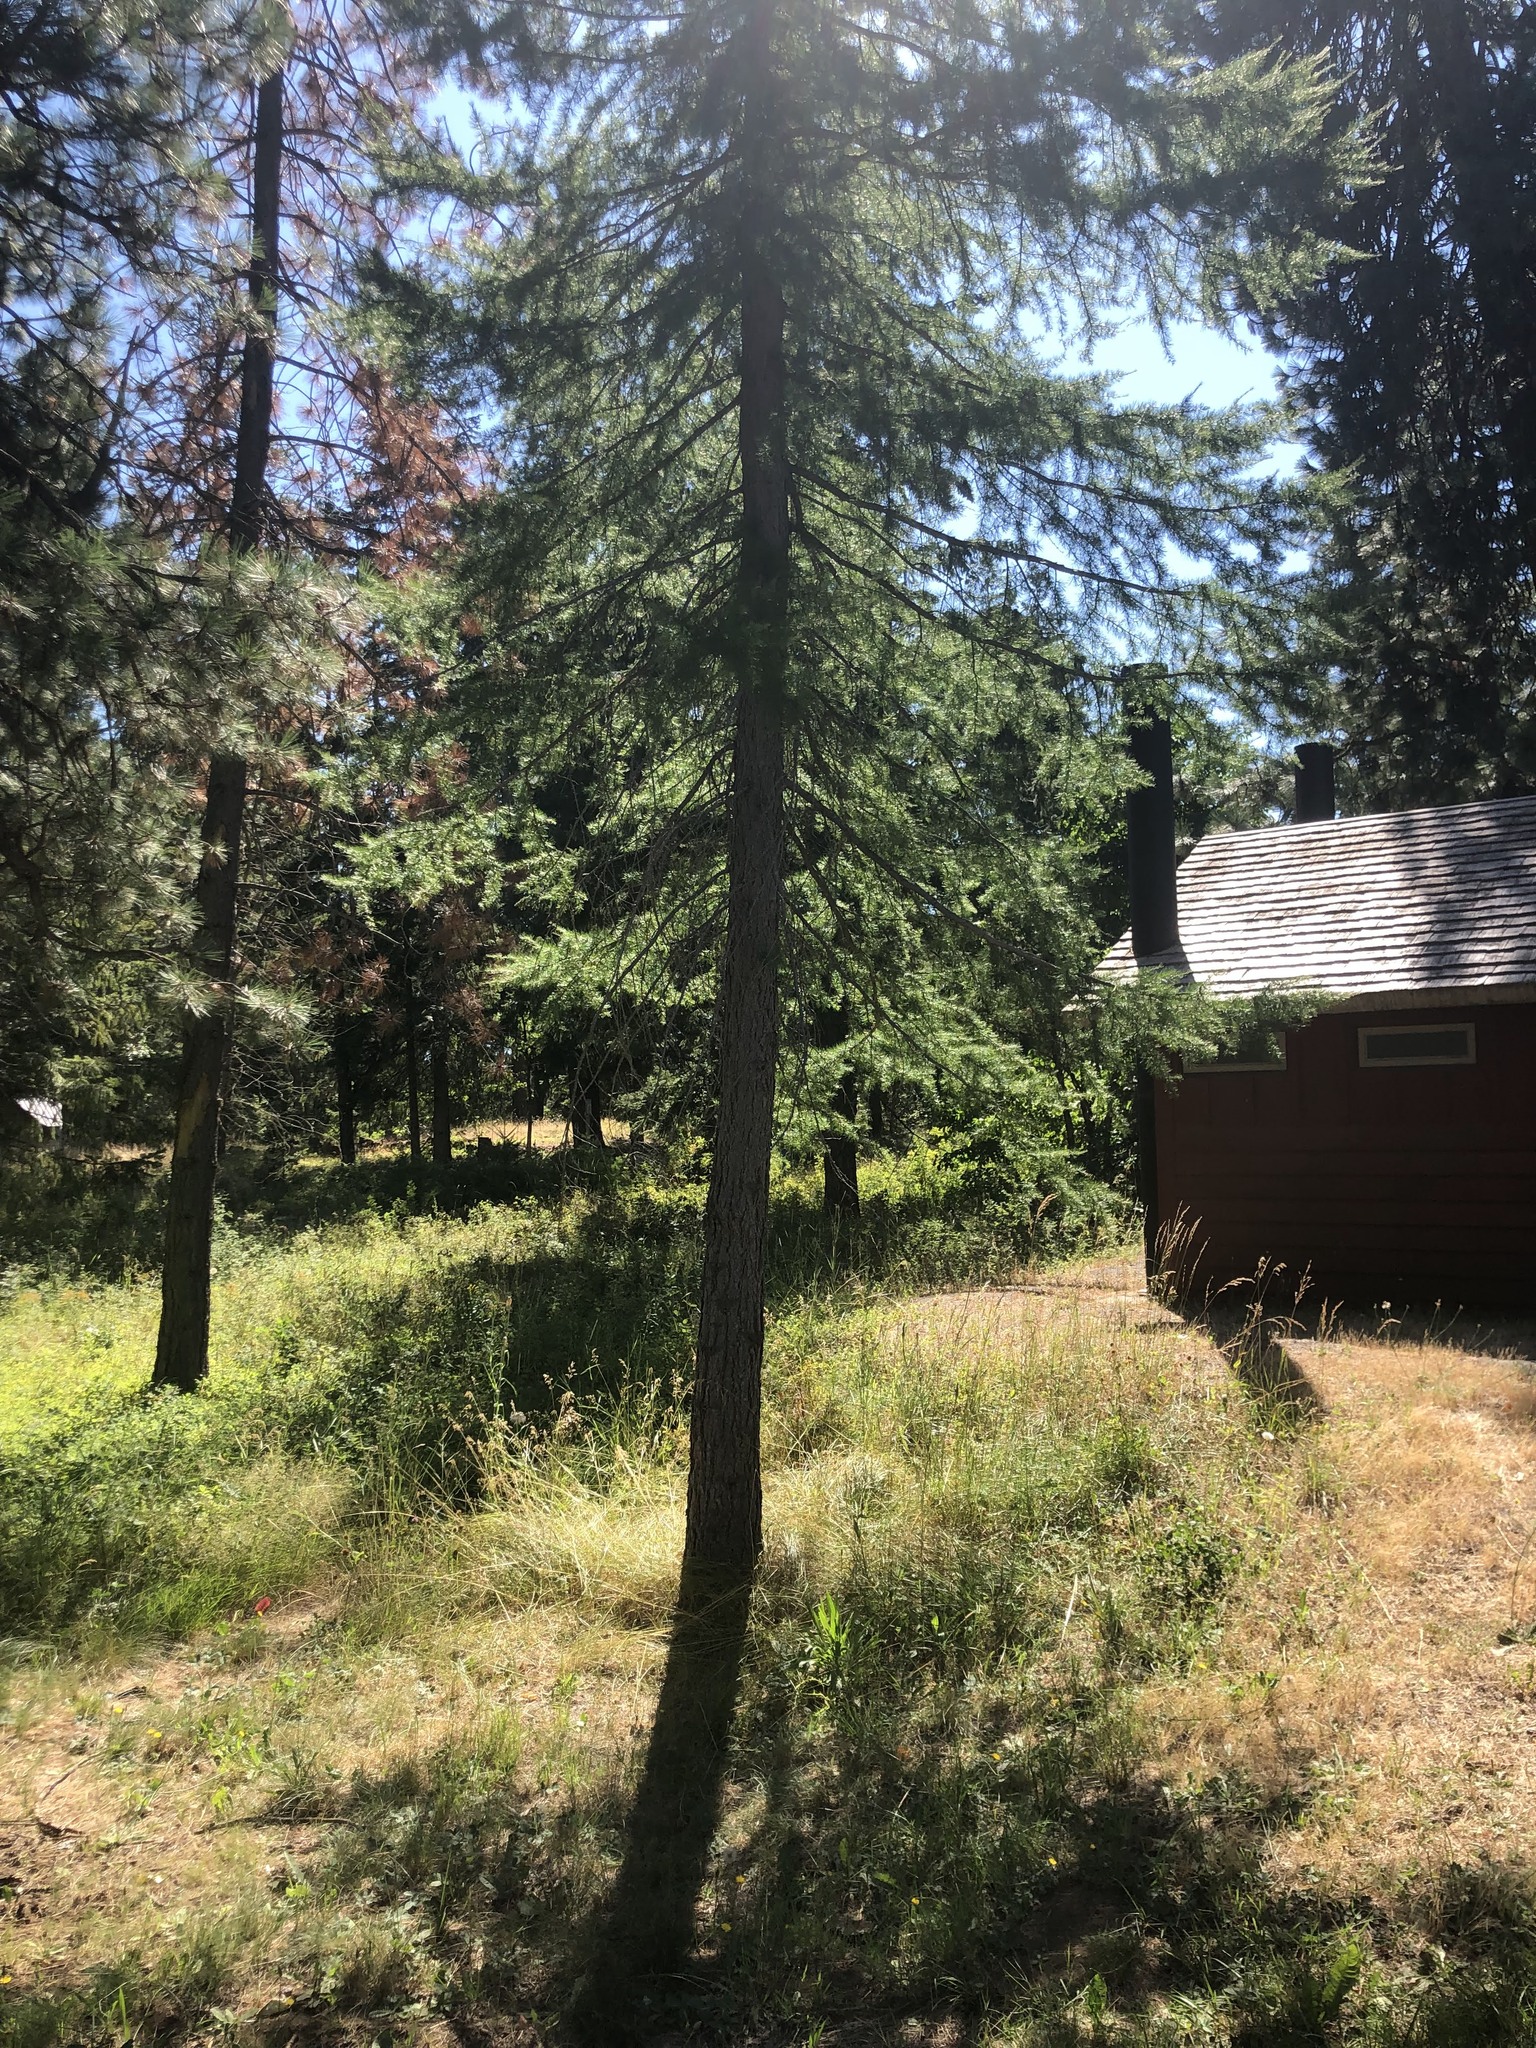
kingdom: Plantae
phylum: Tracheophyta
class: Pinopsida
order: Pinales
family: Pinaceae
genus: Larix
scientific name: Larix occidentalis
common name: Western larch
